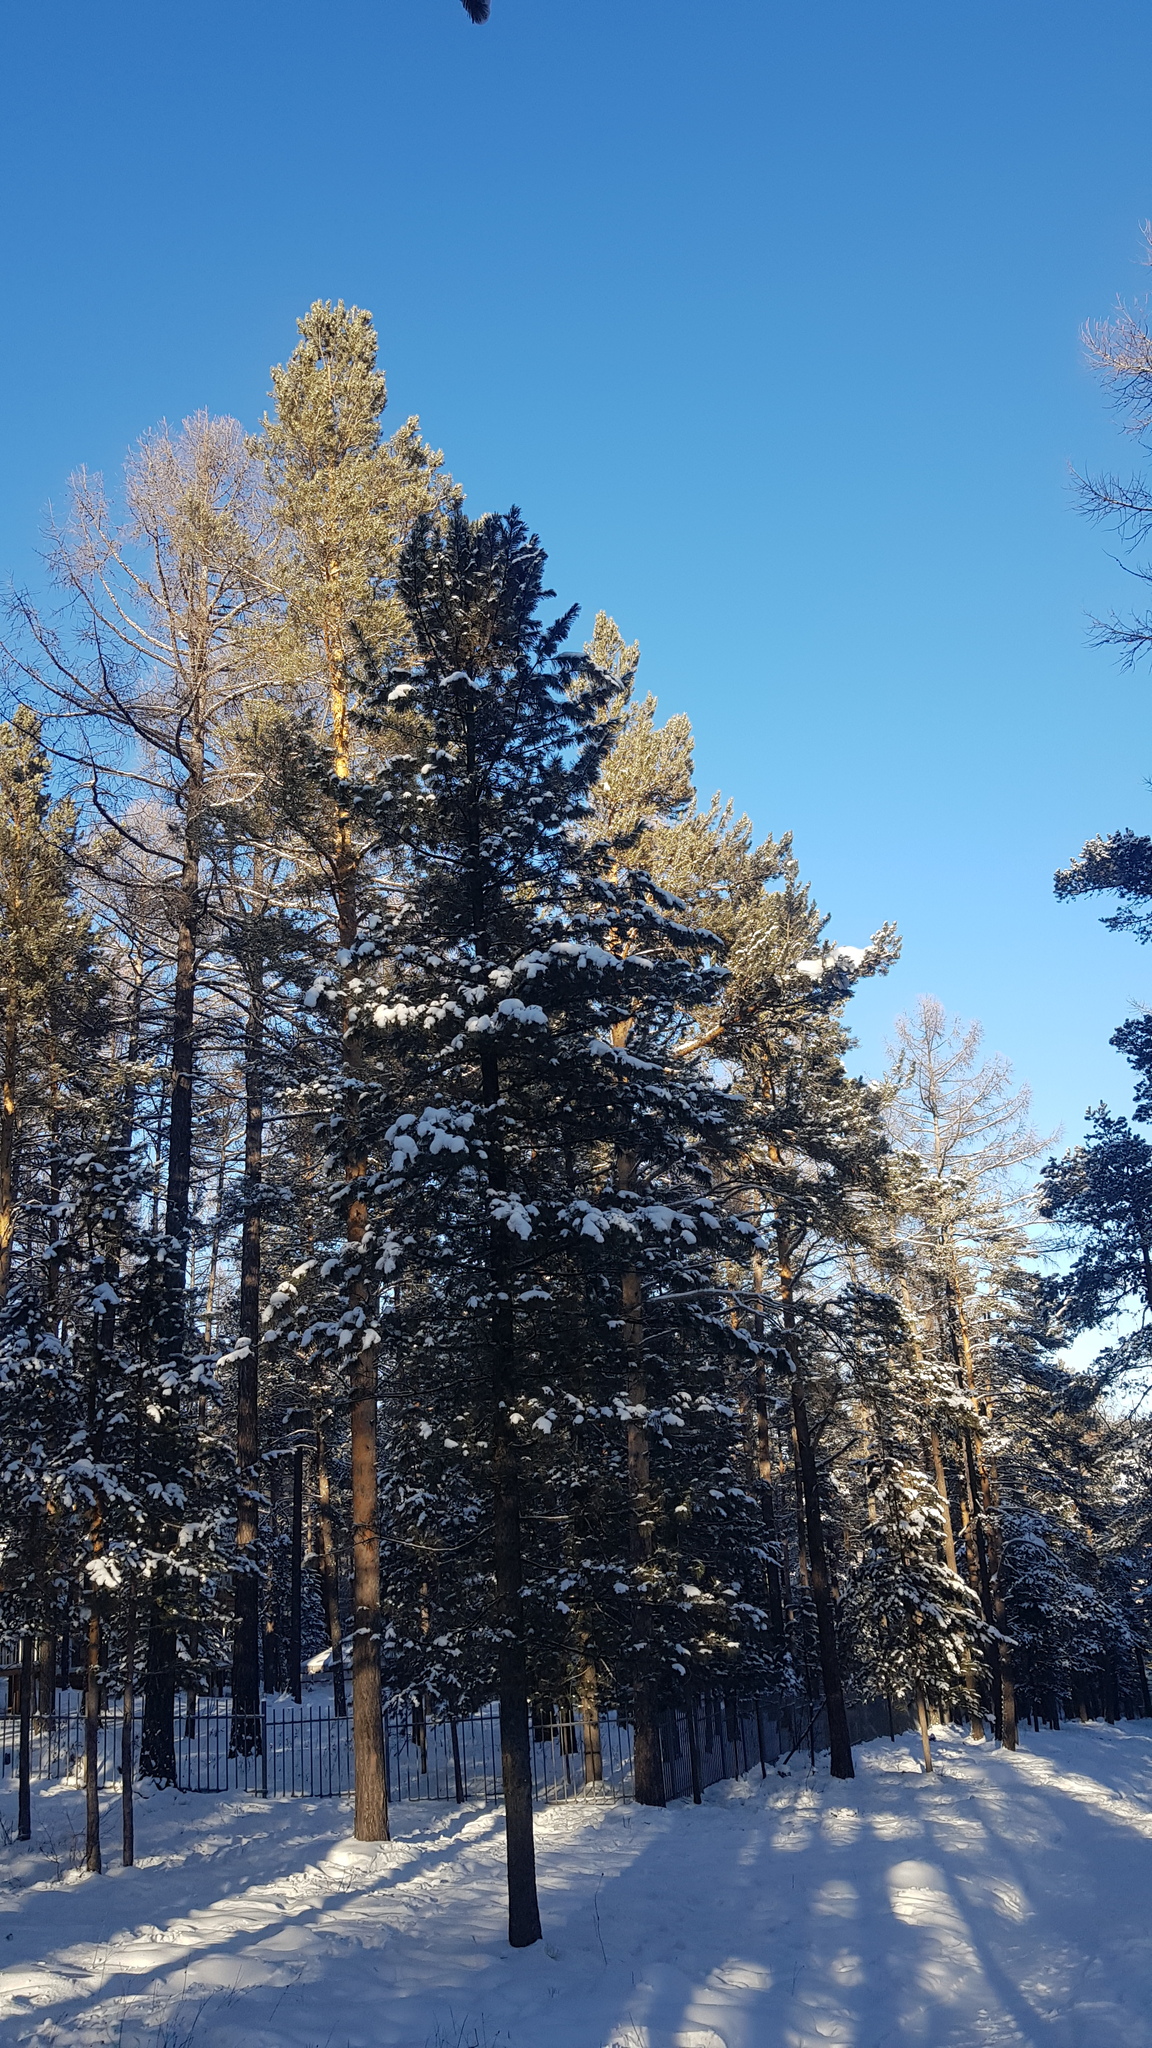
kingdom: Plantae
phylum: Tracheophyta
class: Pinopsida
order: Pinales
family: Pinaceae
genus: Pinus
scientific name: Pinus sylvestris
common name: Scots pine
